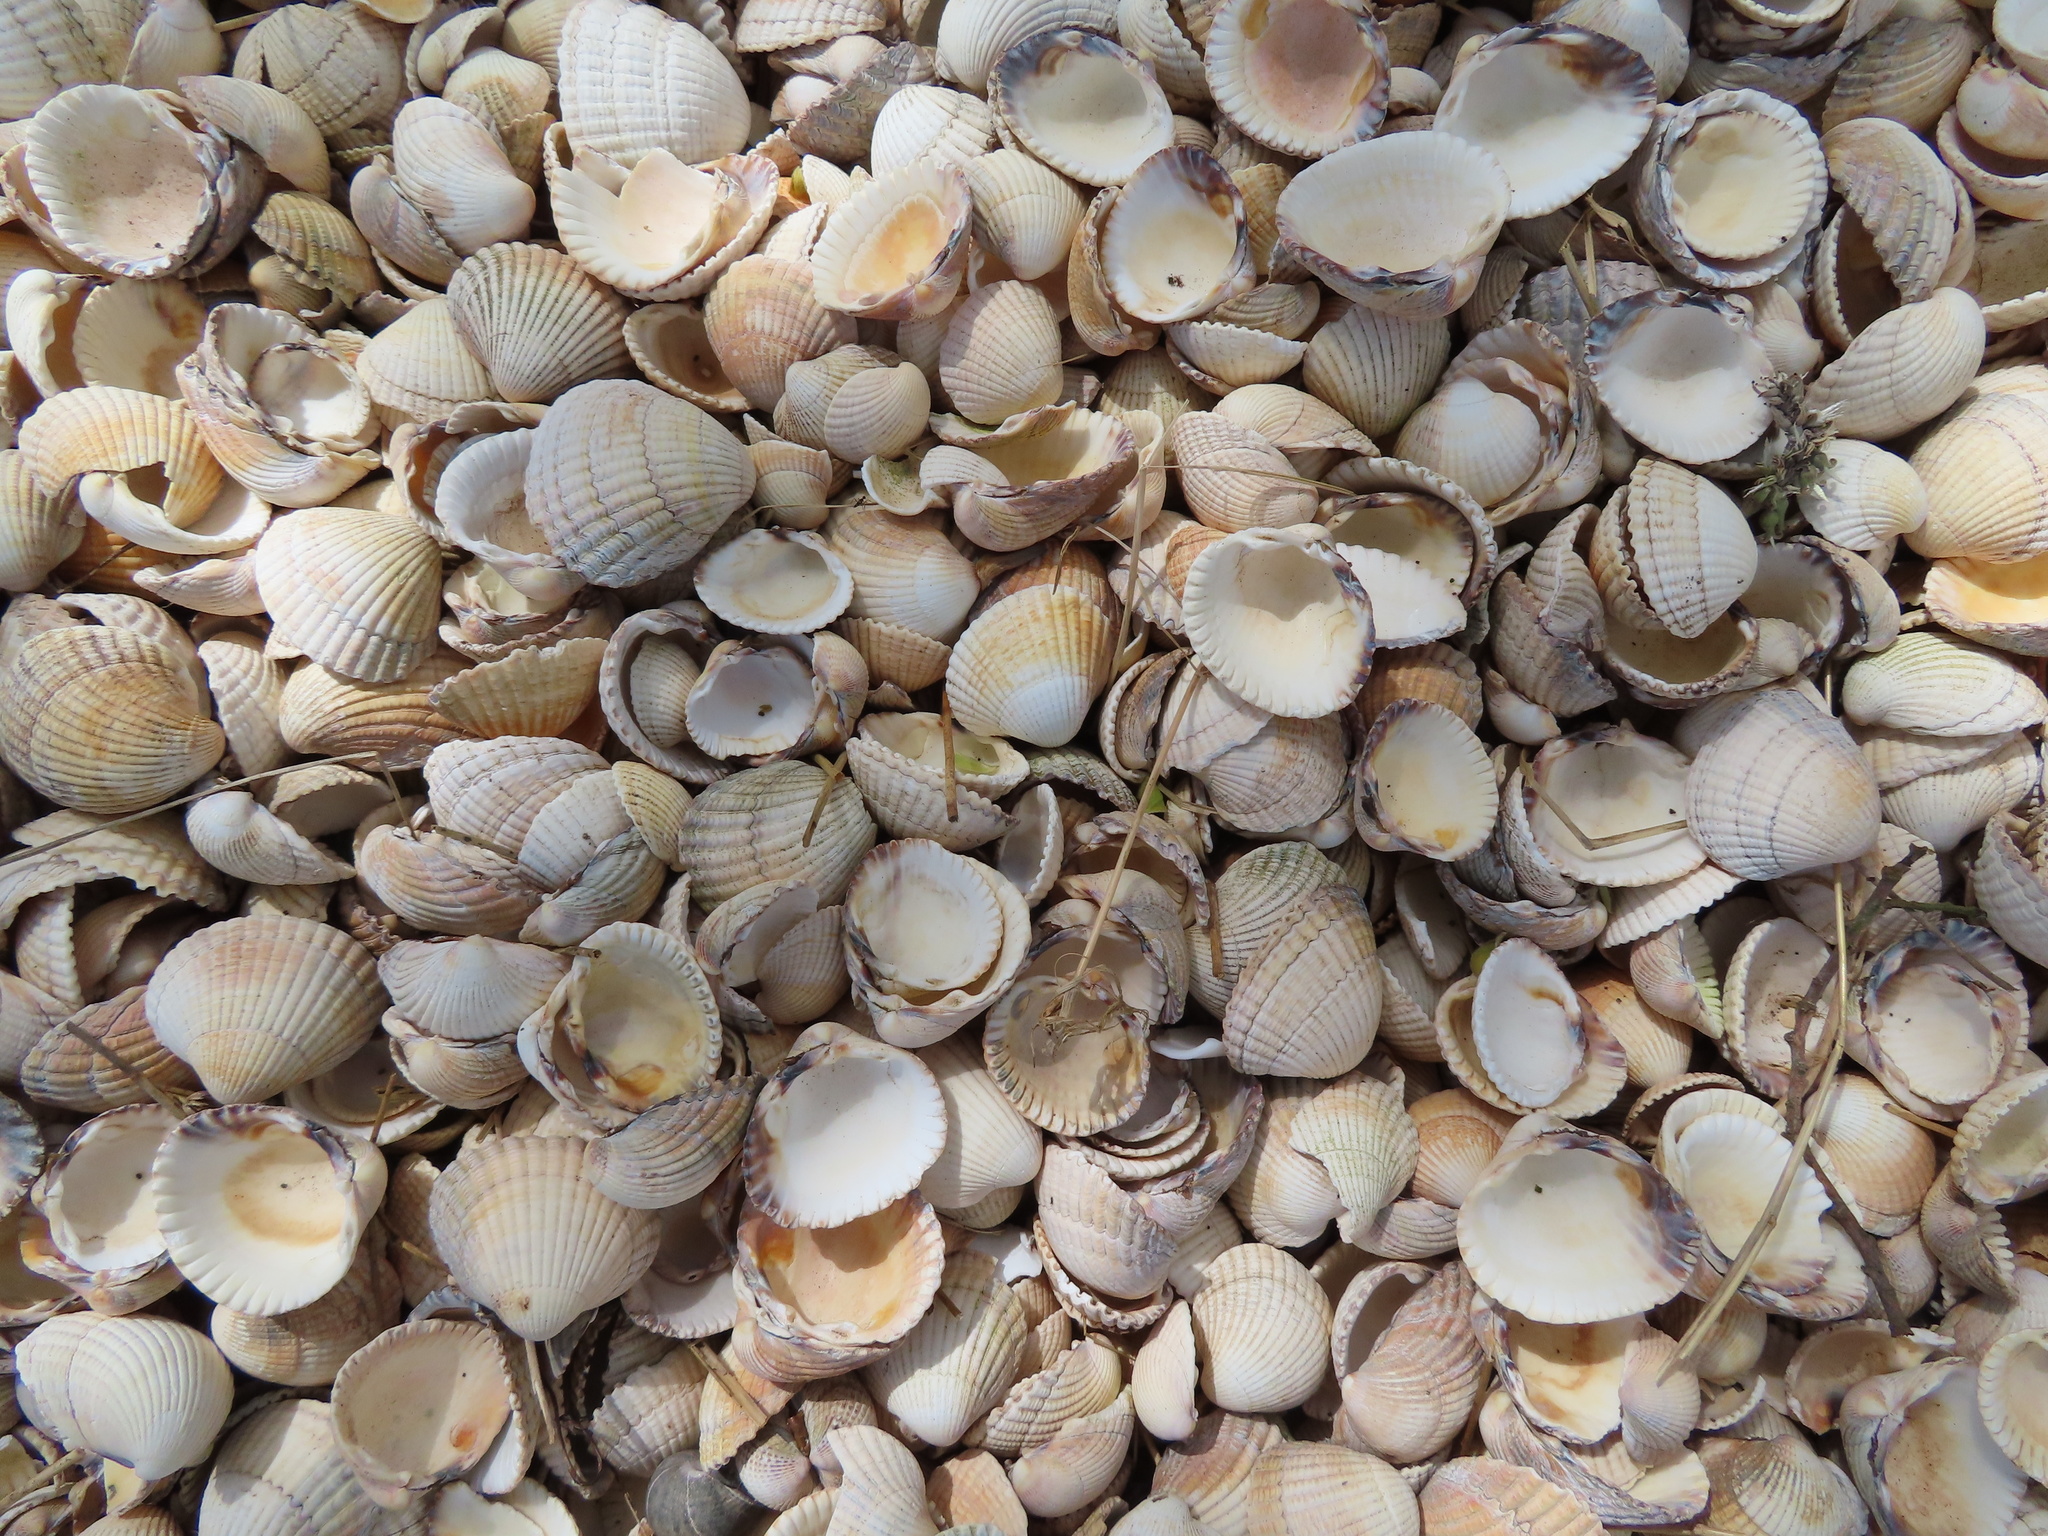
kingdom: Animalia
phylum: Mollusca
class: Bivalvia
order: Cardiida
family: Cardiidae
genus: Cerastoderma
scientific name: Cerastoderma edule
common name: Common cockle
